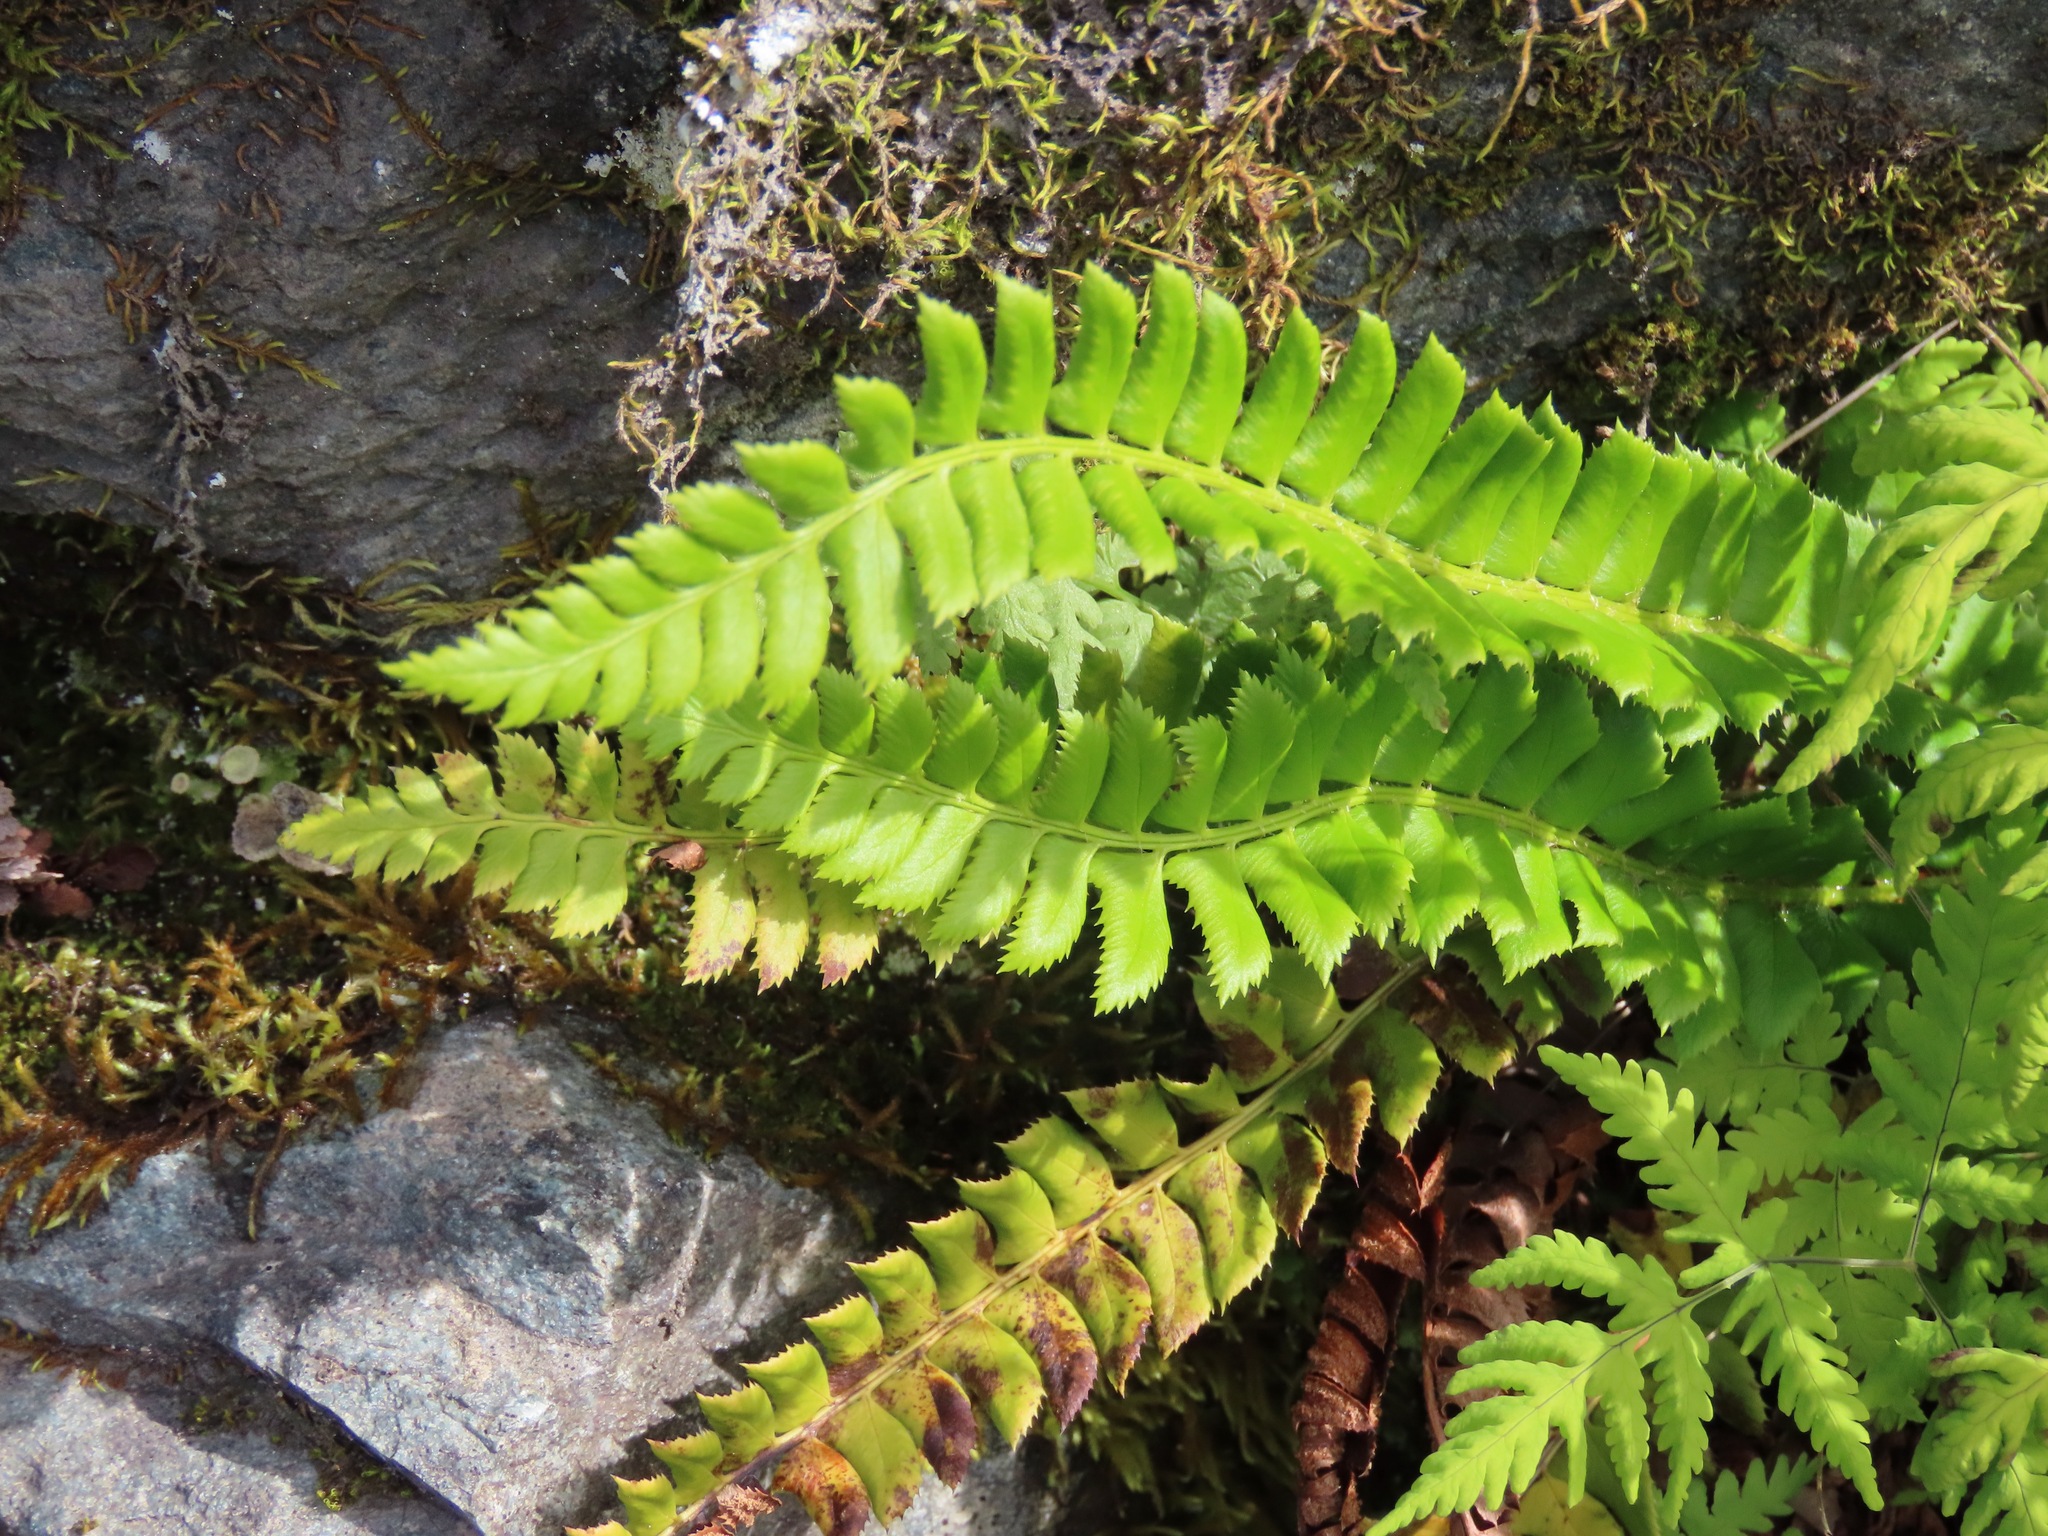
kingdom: Plantae
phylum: Tracheophyta
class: Polypodiopsida
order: Polypodiales
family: Dryopteridaceae
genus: Polystichum
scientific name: Polystichum lonchitis
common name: Holly fern
